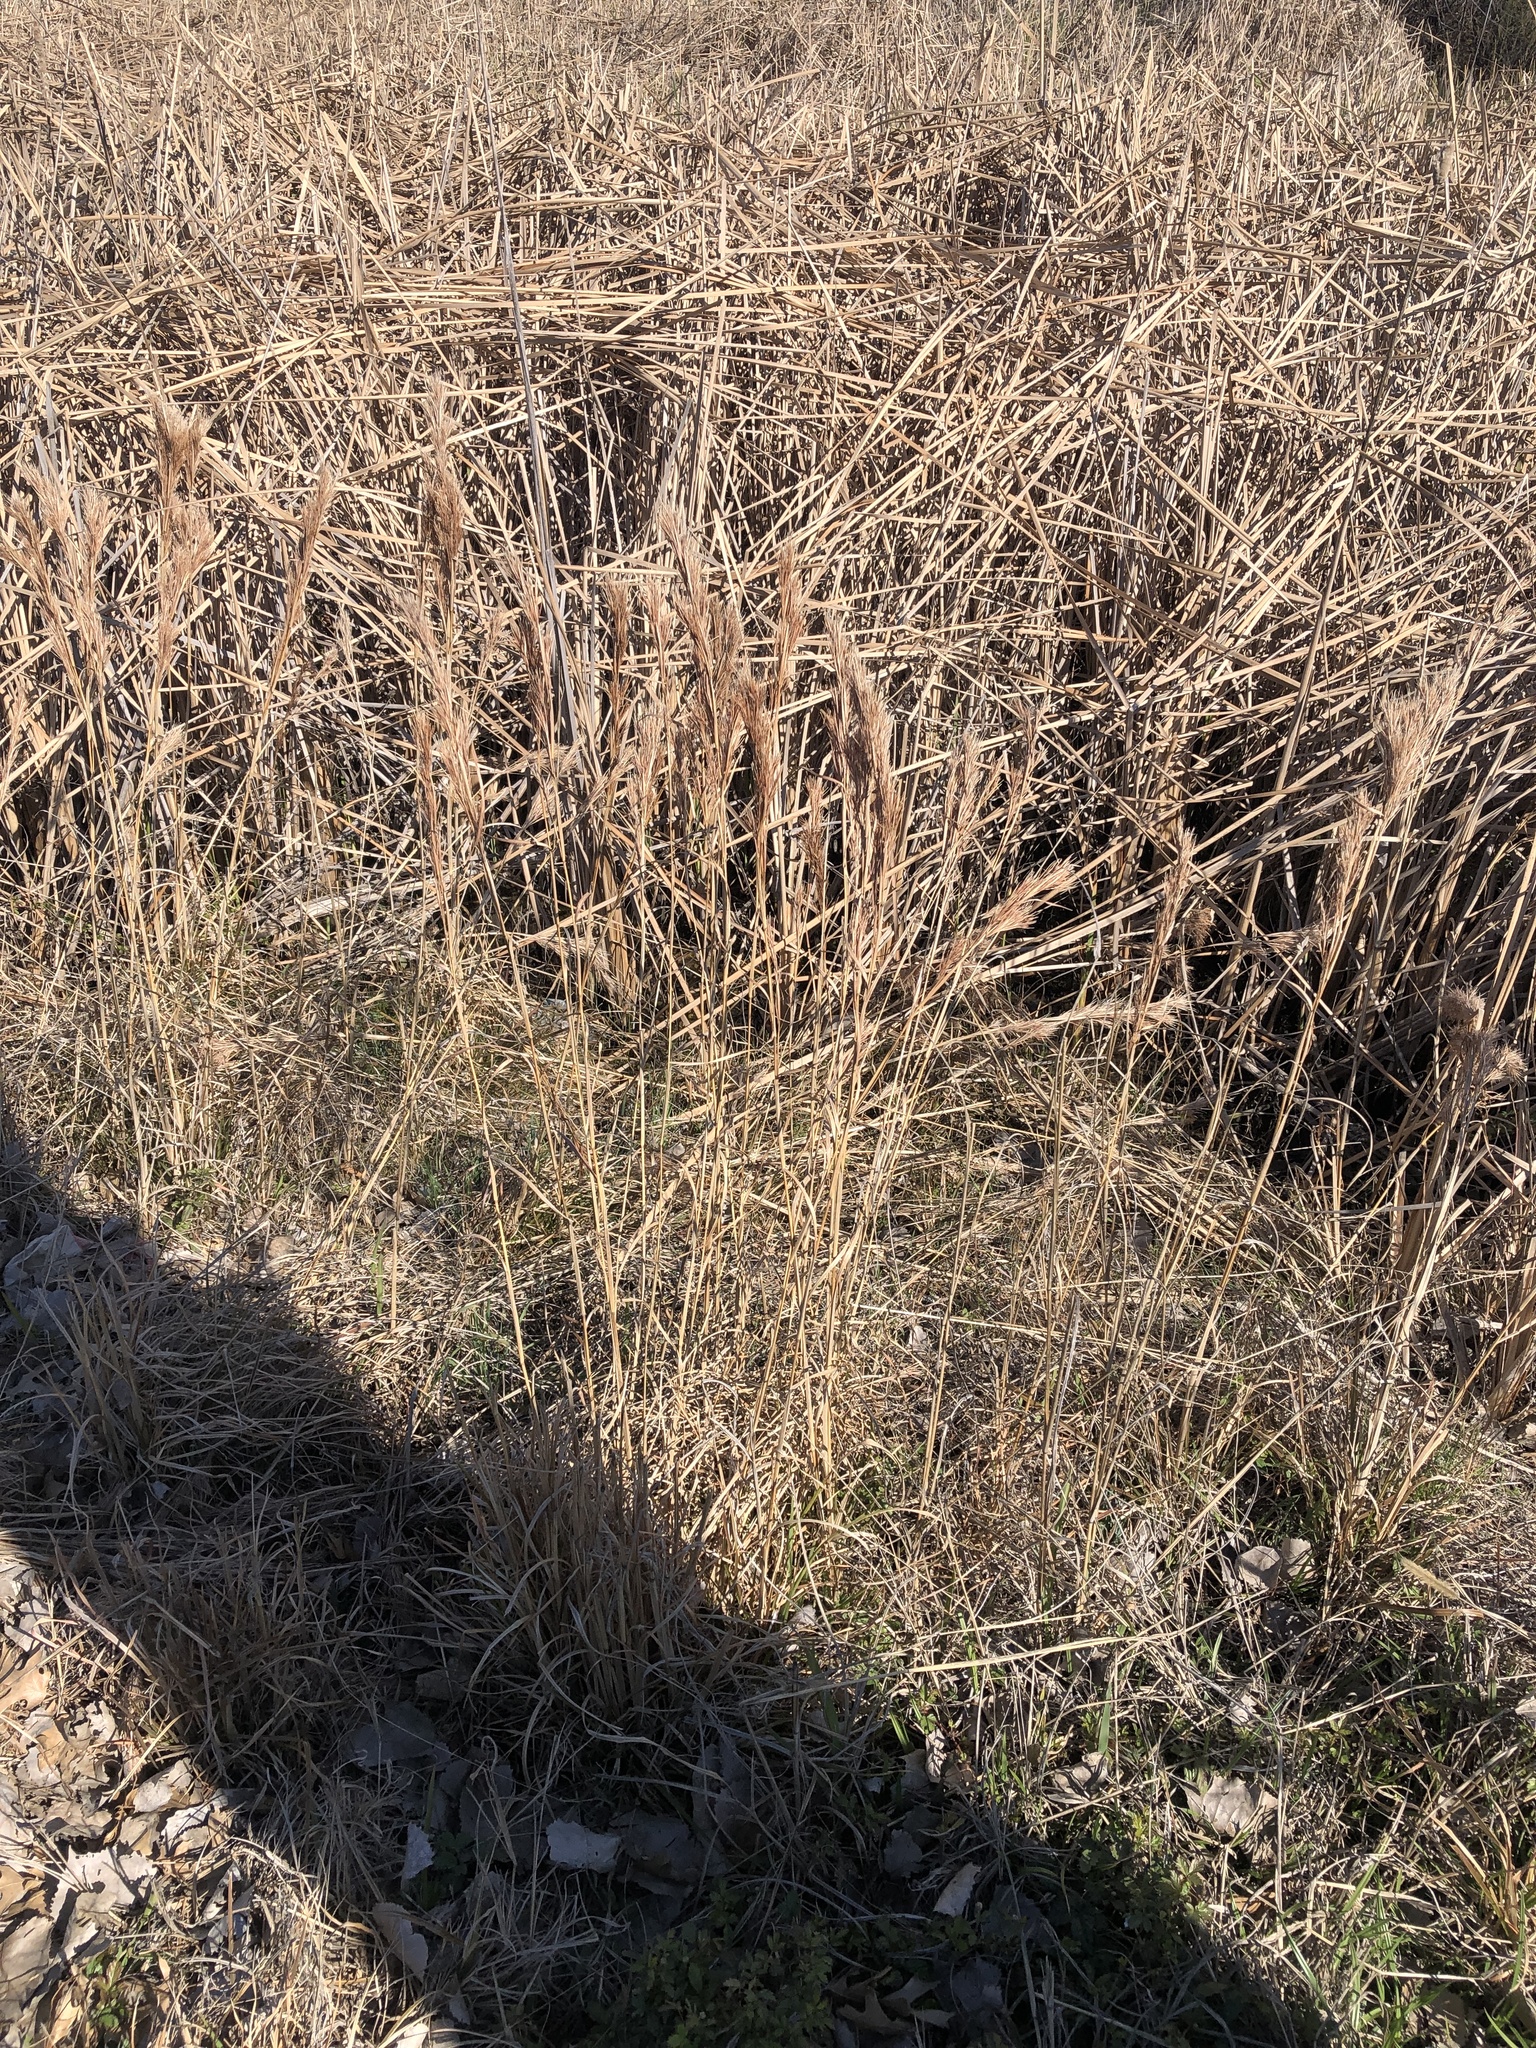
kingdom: Plantae
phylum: Tracheophyta
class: Liliopsida
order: Poales
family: Poaceae
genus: Andropogon
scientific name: Andropogon tenuispatheus
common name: Bushy bluestem
